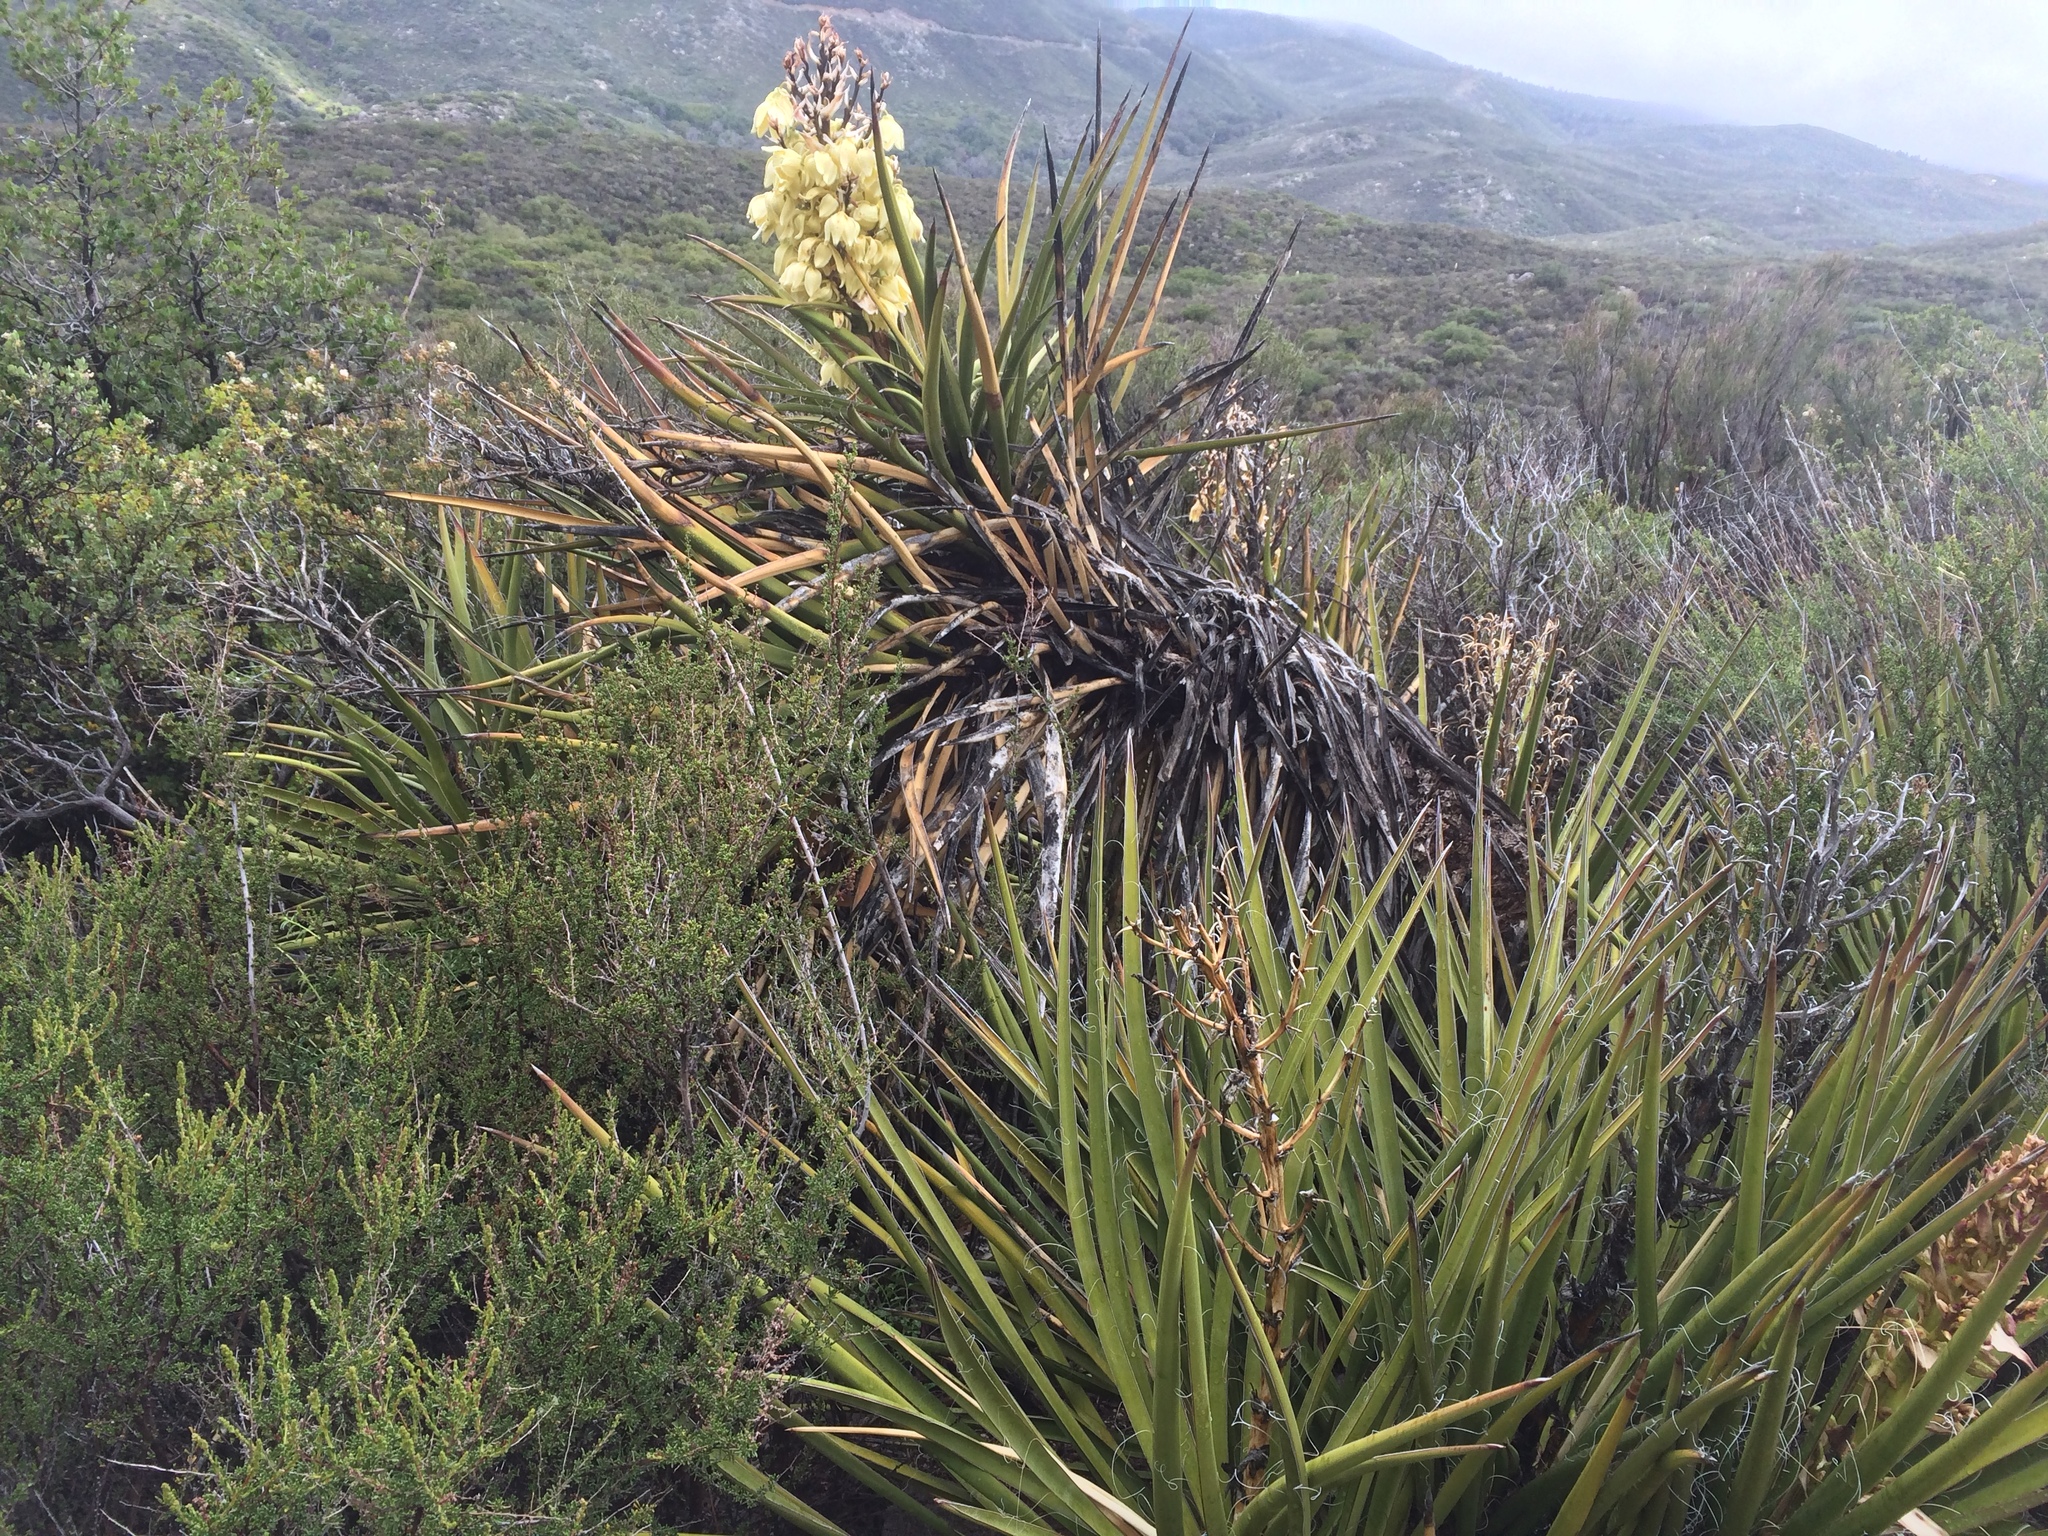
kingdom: Plantae
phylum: Tracheophyta
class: Liliopsida
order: Asparagales
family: Asparagaceae
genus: Yucca
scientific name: Yucca schidigera
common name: Mojave yucca
